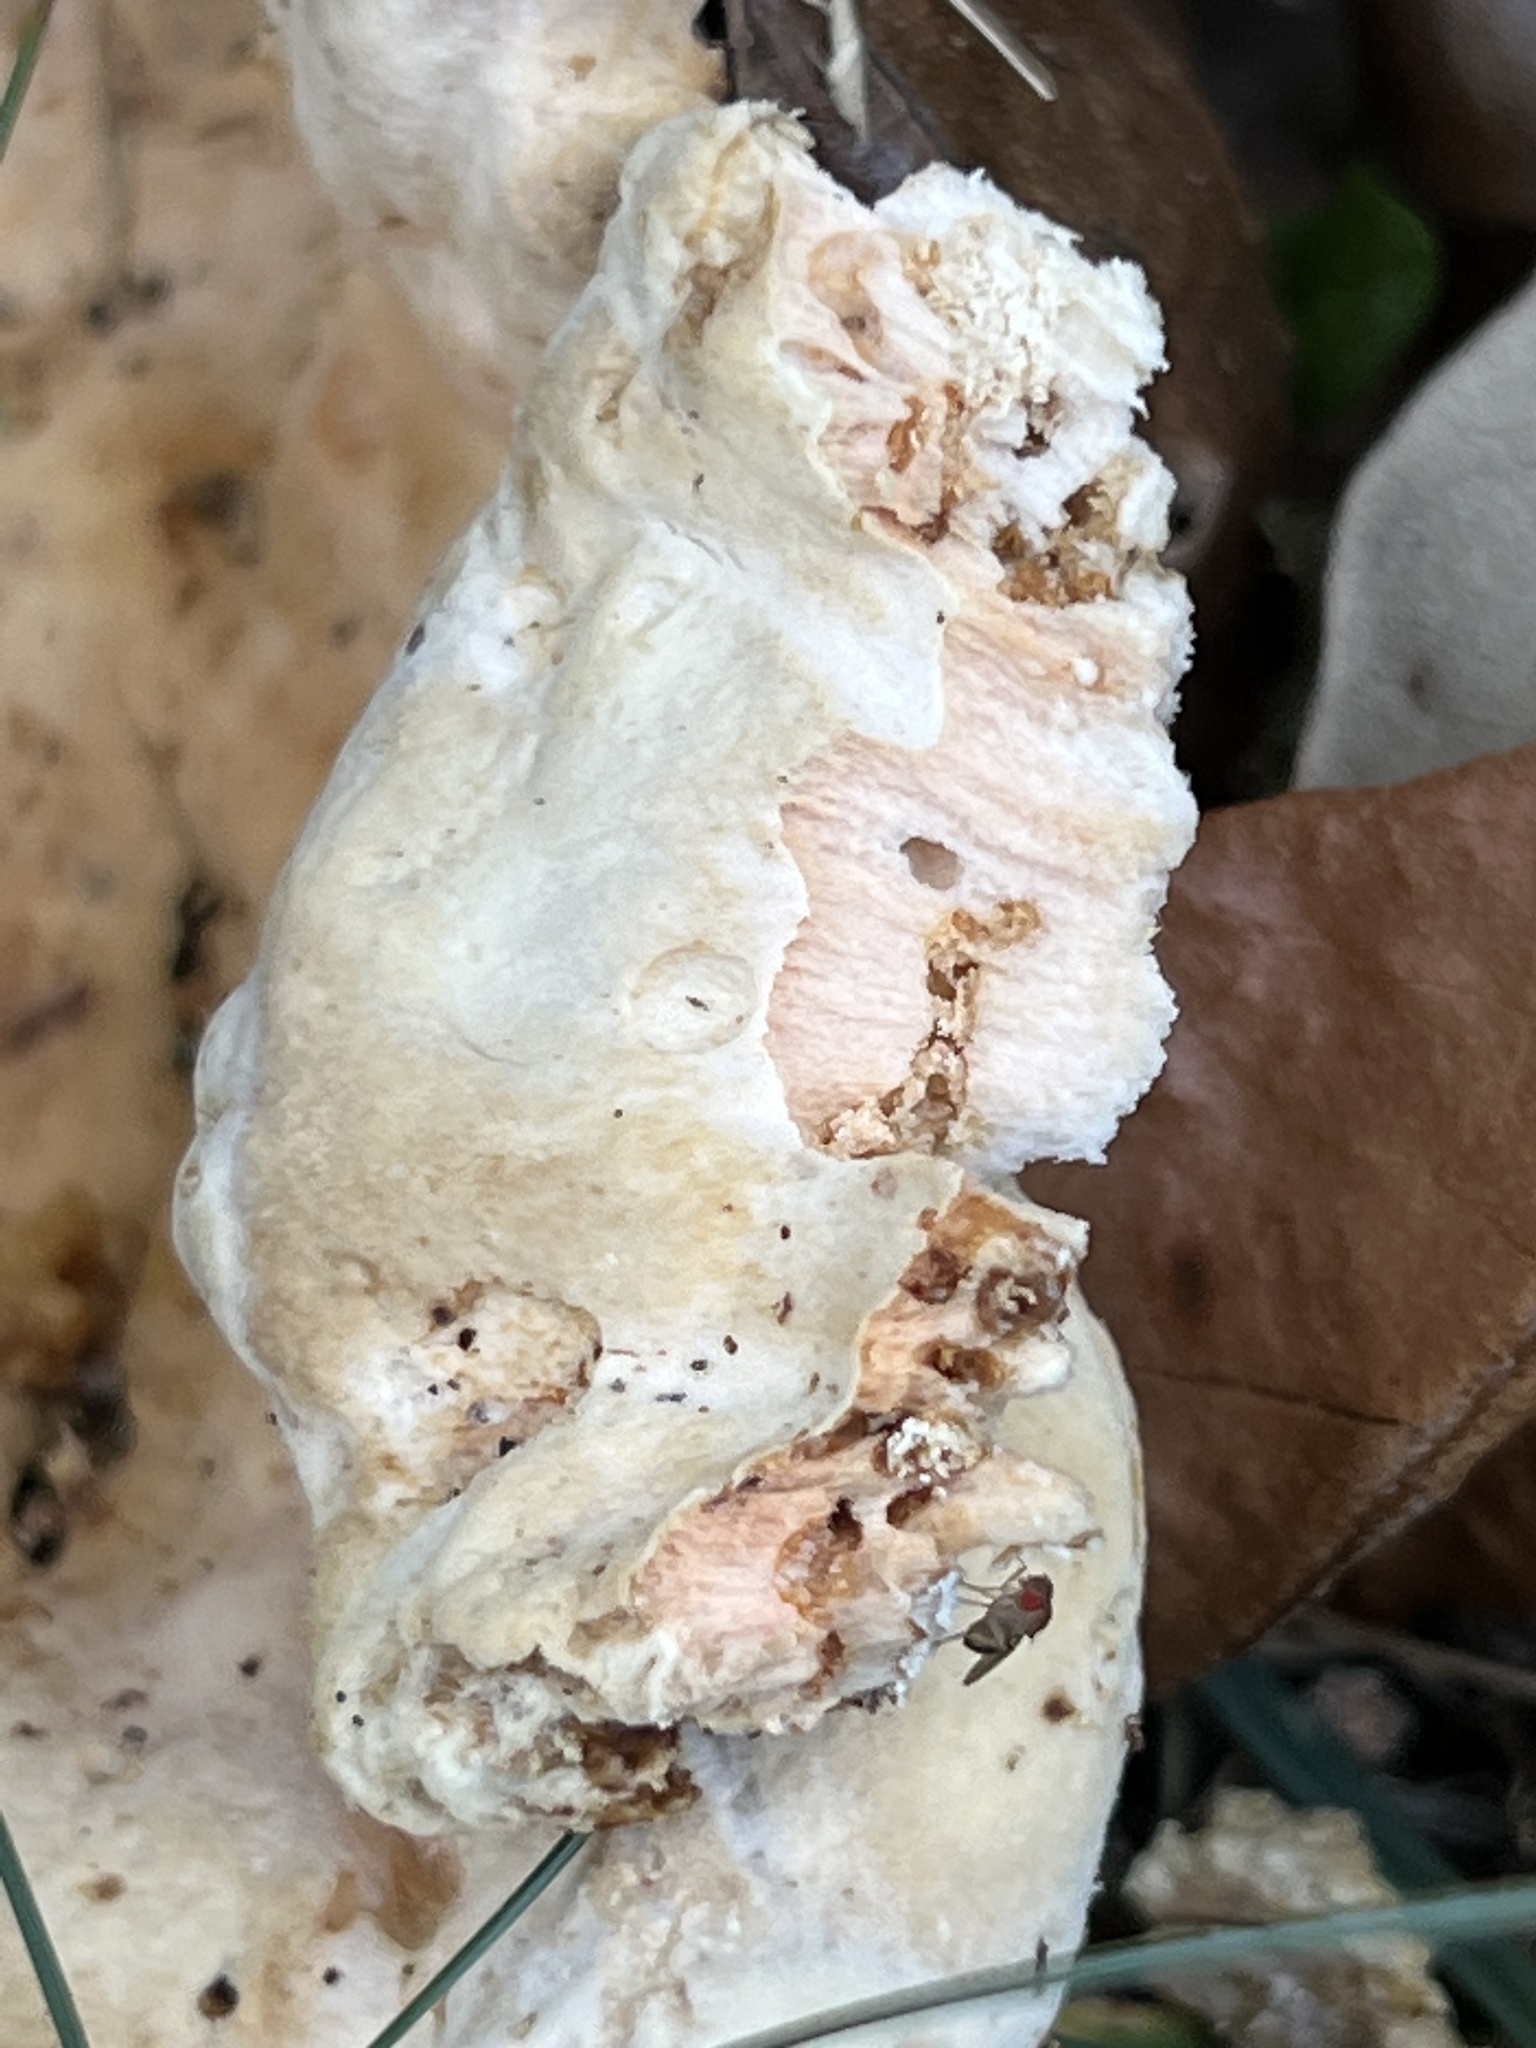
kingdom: Fungi
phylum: Basidiomycota
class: Agaricomycetes
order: Polyporales
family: Laetiporaceae
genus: Laetiporus
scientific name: Laetiporus sulphureus
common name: Chicken of the woods
